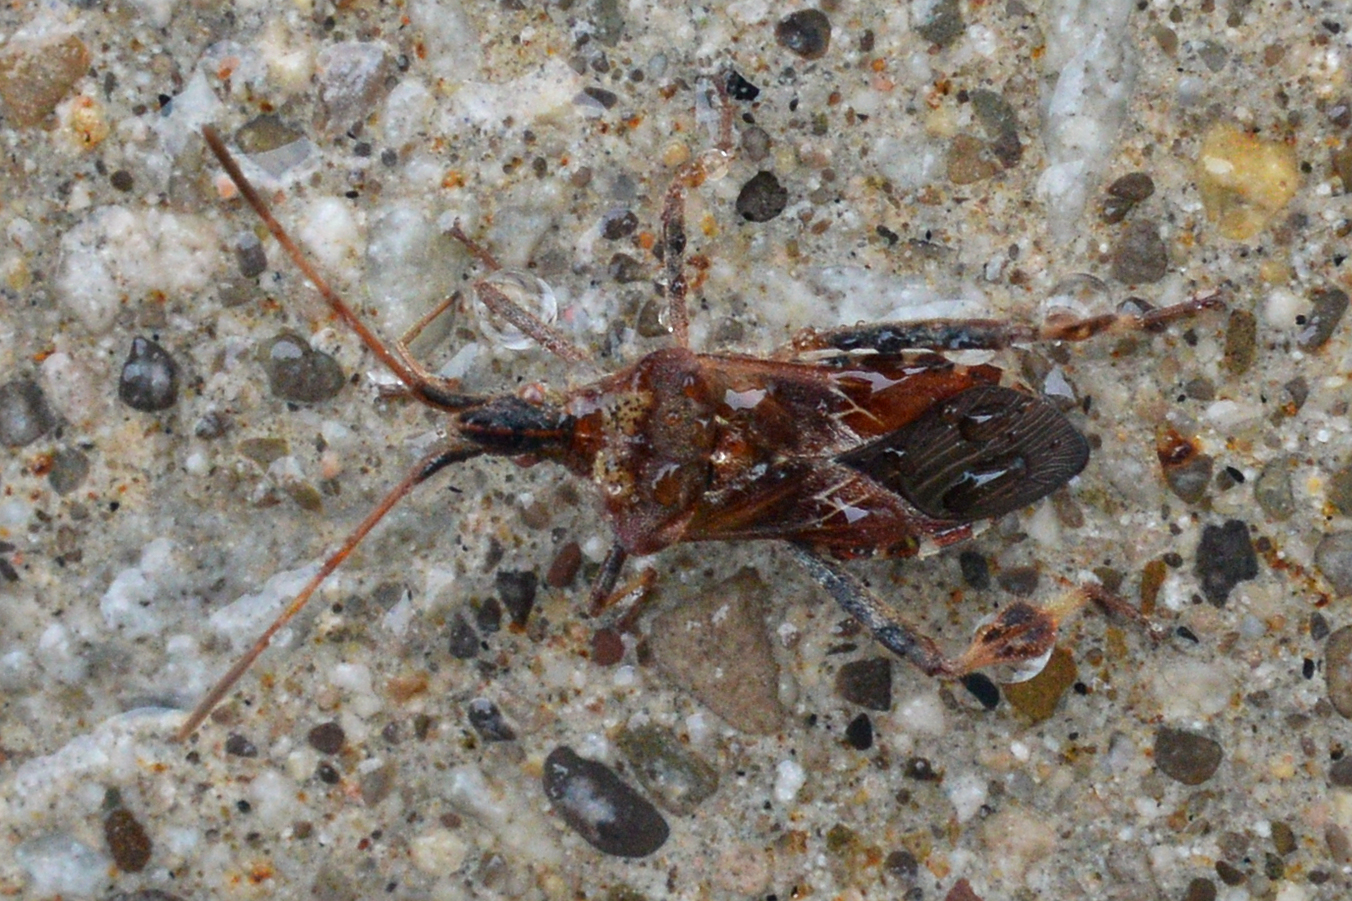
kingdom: Animalia
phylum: Arthropoda
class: Insecta
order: Hemiptera
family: Coreidae
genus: Leptoglossus
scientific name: Leptoglossus occidentalis
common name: Western conifer-seed bug
